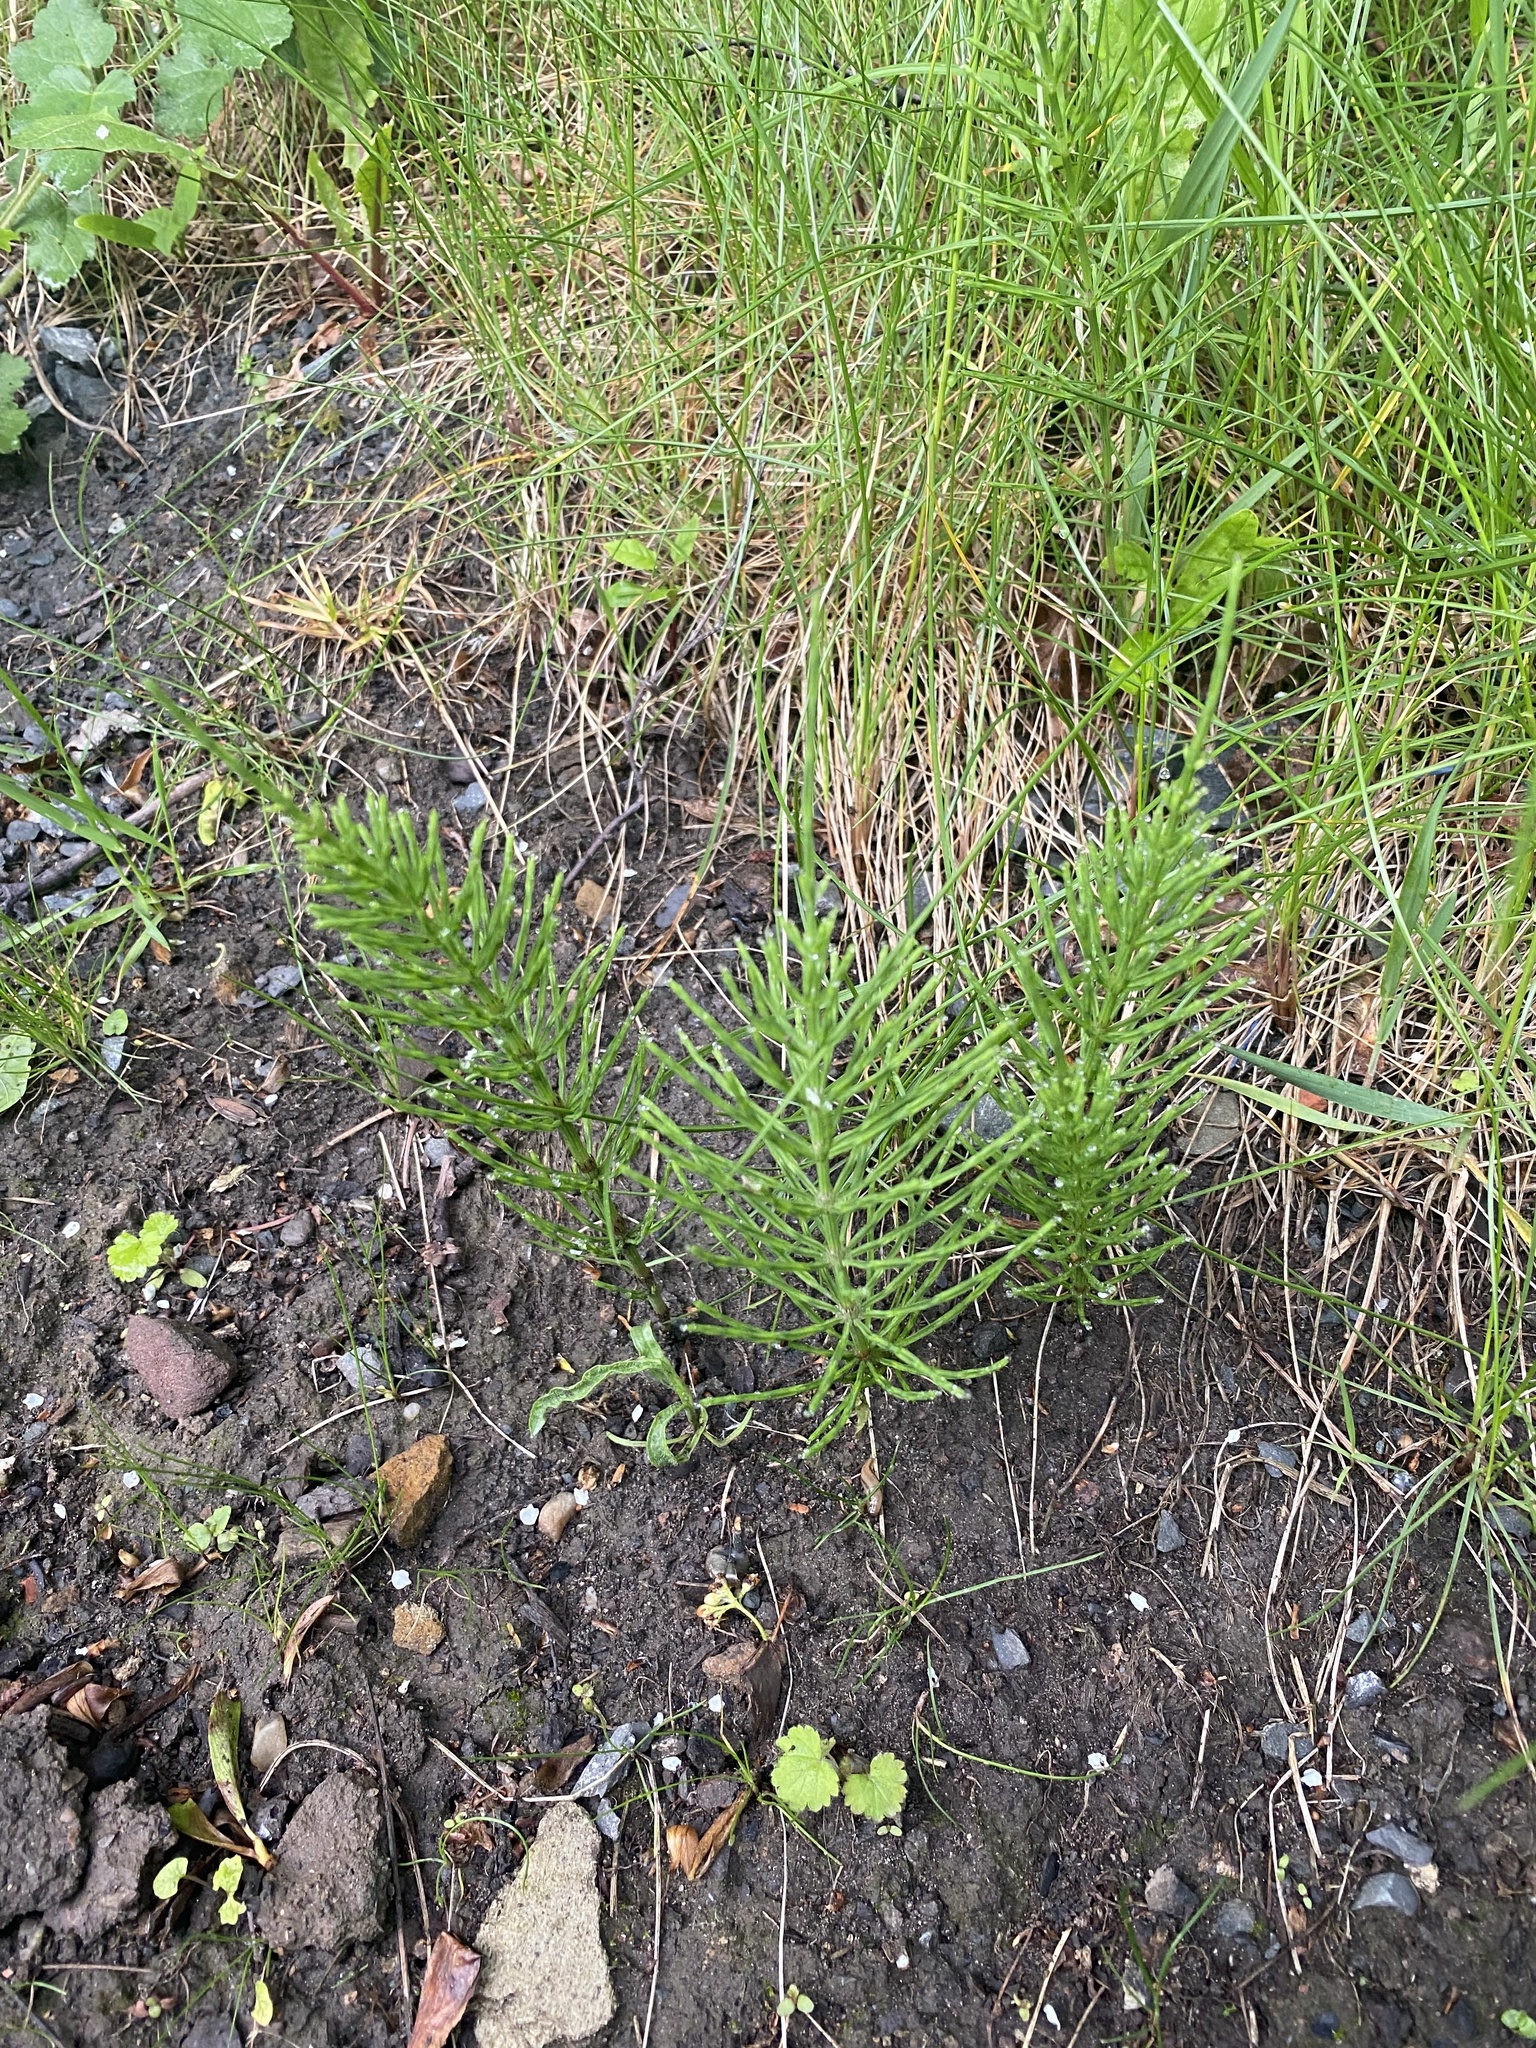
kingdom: Plantae
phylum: Tracheophyta
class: Polypodiopsida
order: Equisetales
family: Equisetaceae
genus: Equisetum
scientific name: Equisetum arvense
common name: Field horsetail
